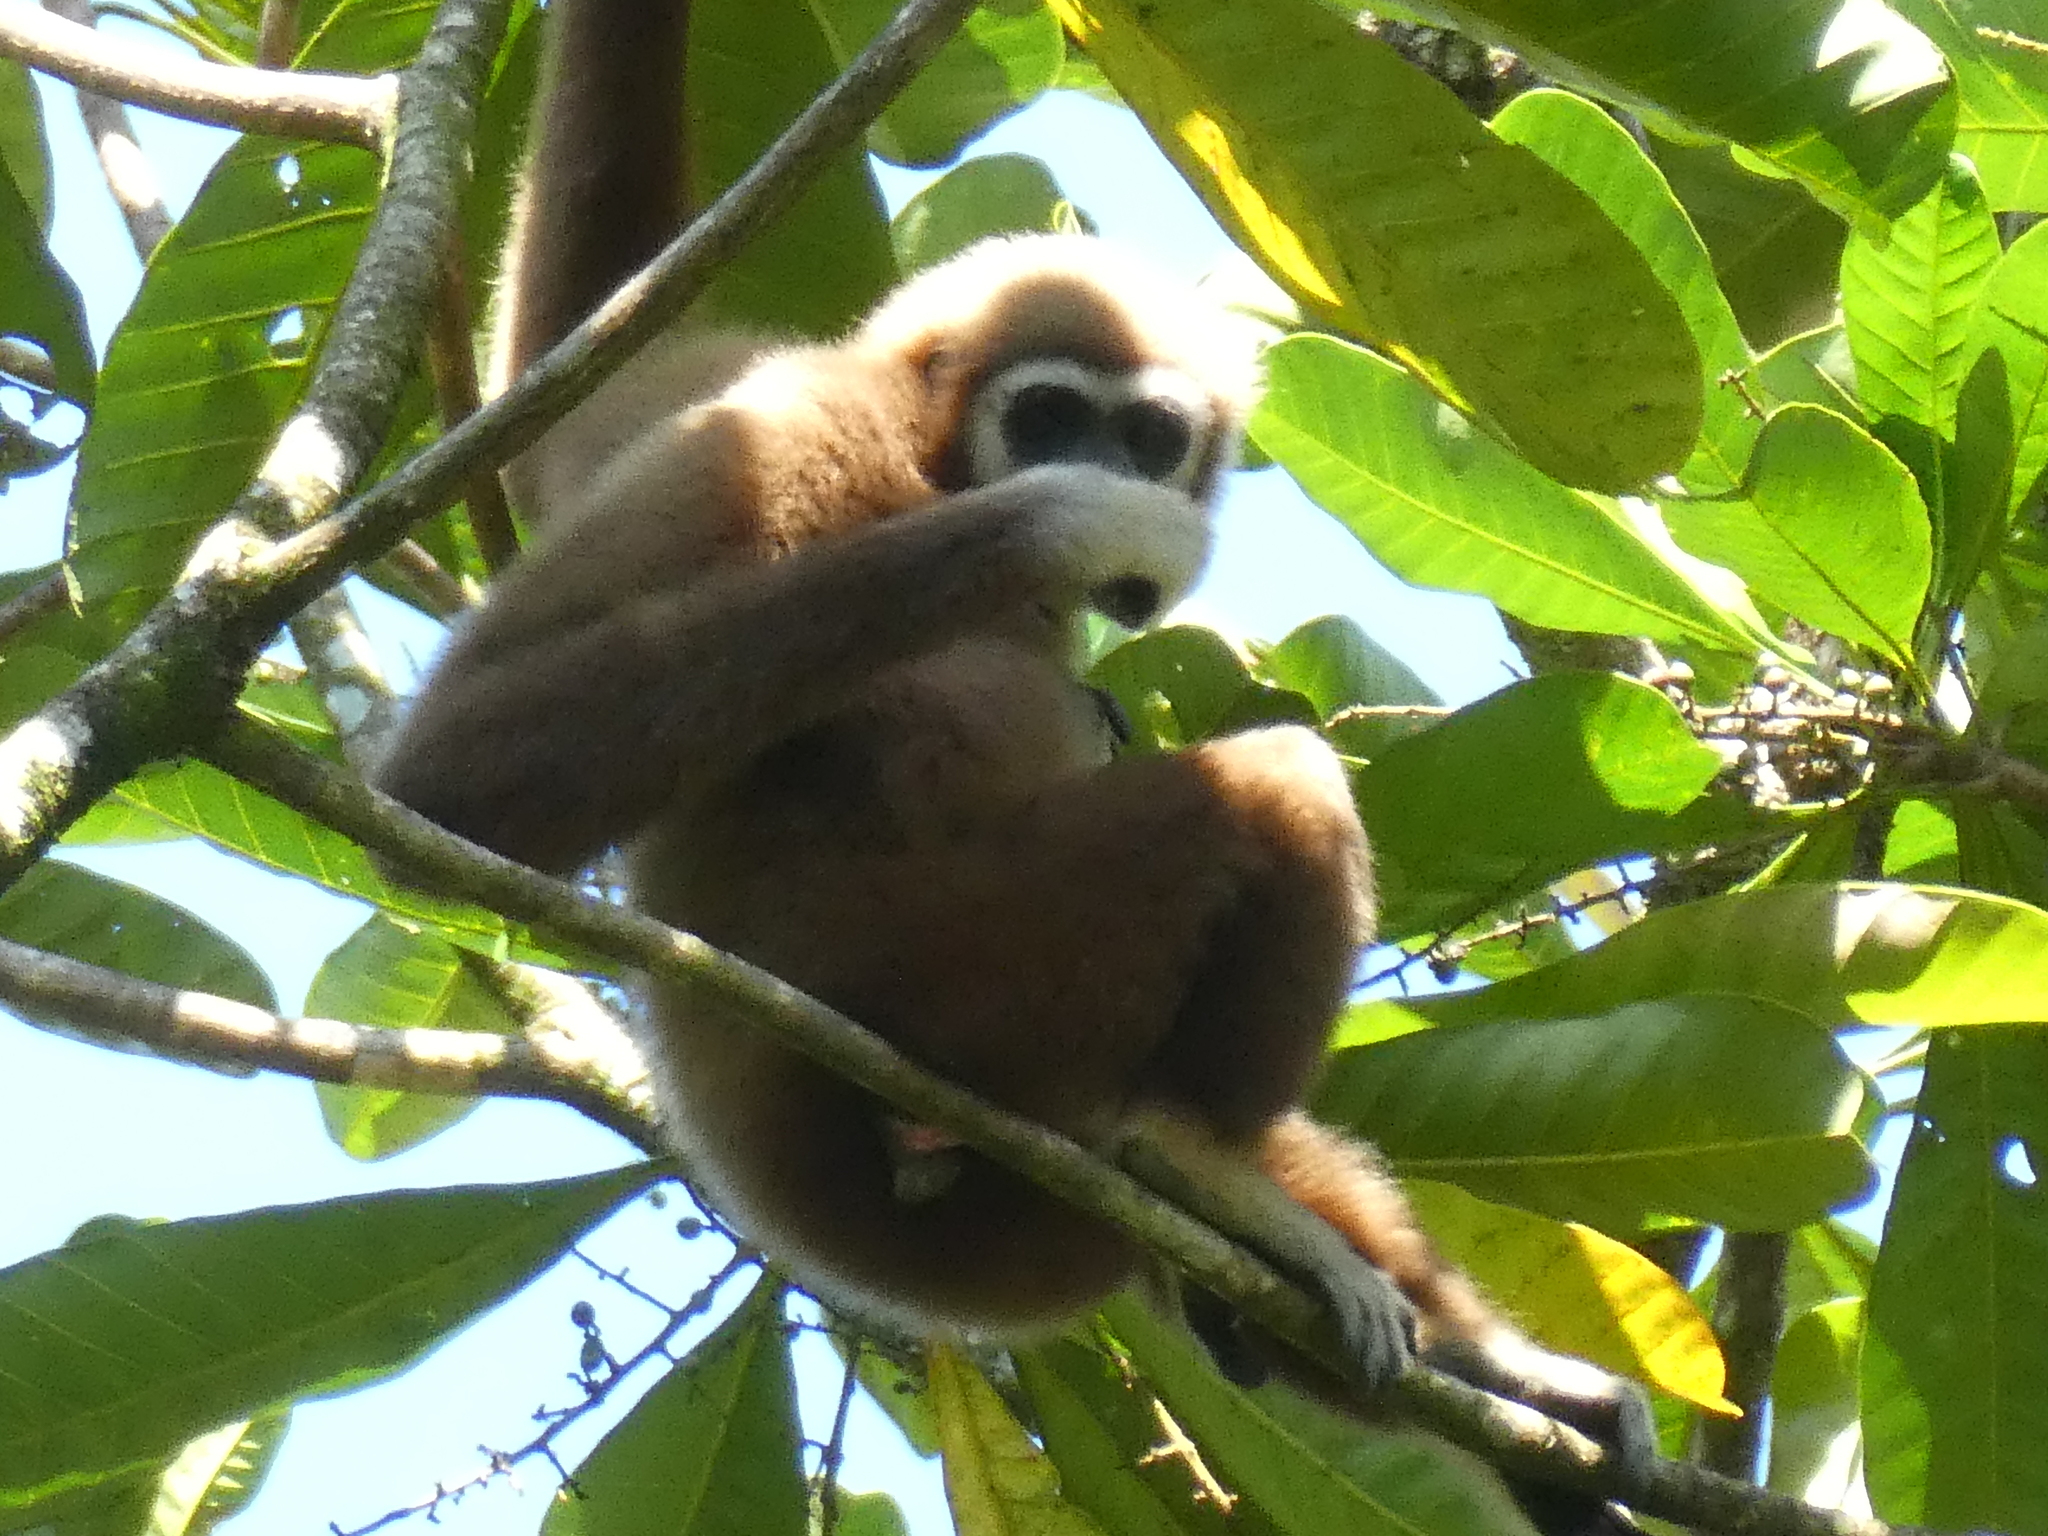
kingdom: Animalia
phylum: Chordata
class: Mammalia
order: Primates
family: Hylobatidae
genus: Hylobates
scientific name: Hylobates lar
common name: Lar gibbon
